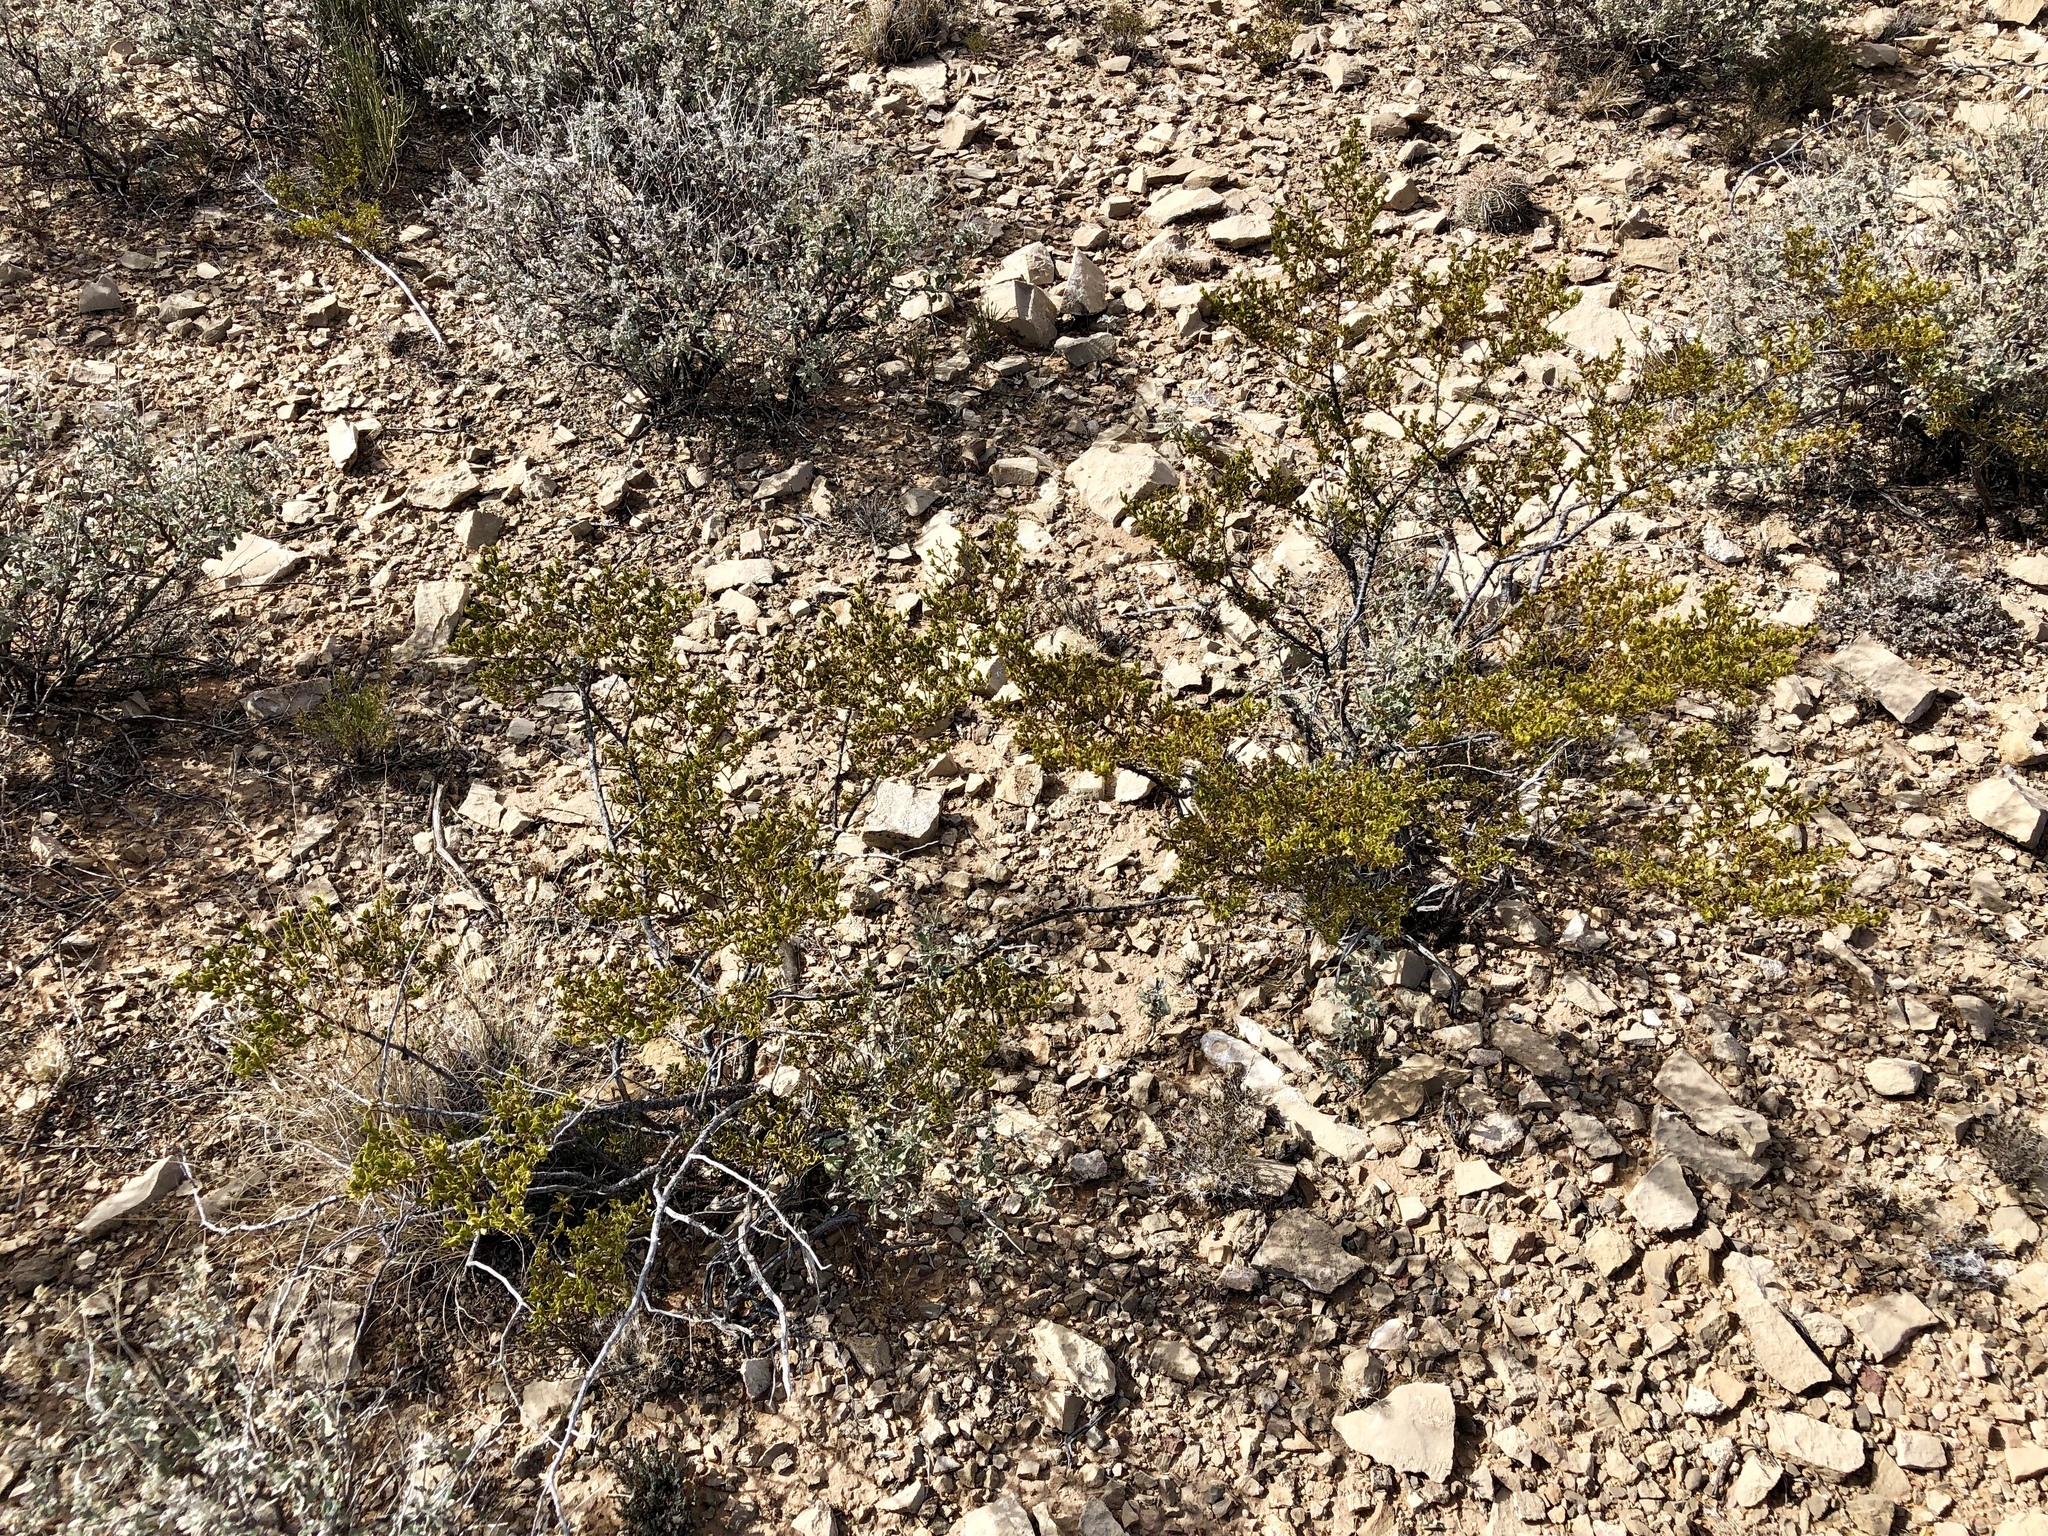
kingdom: Plantae
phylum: Tracheophyta
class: Magnoliopsida
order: Zygophyllales
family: Zygophyllaceae
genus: Larrea
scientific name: Larrea tridentata
